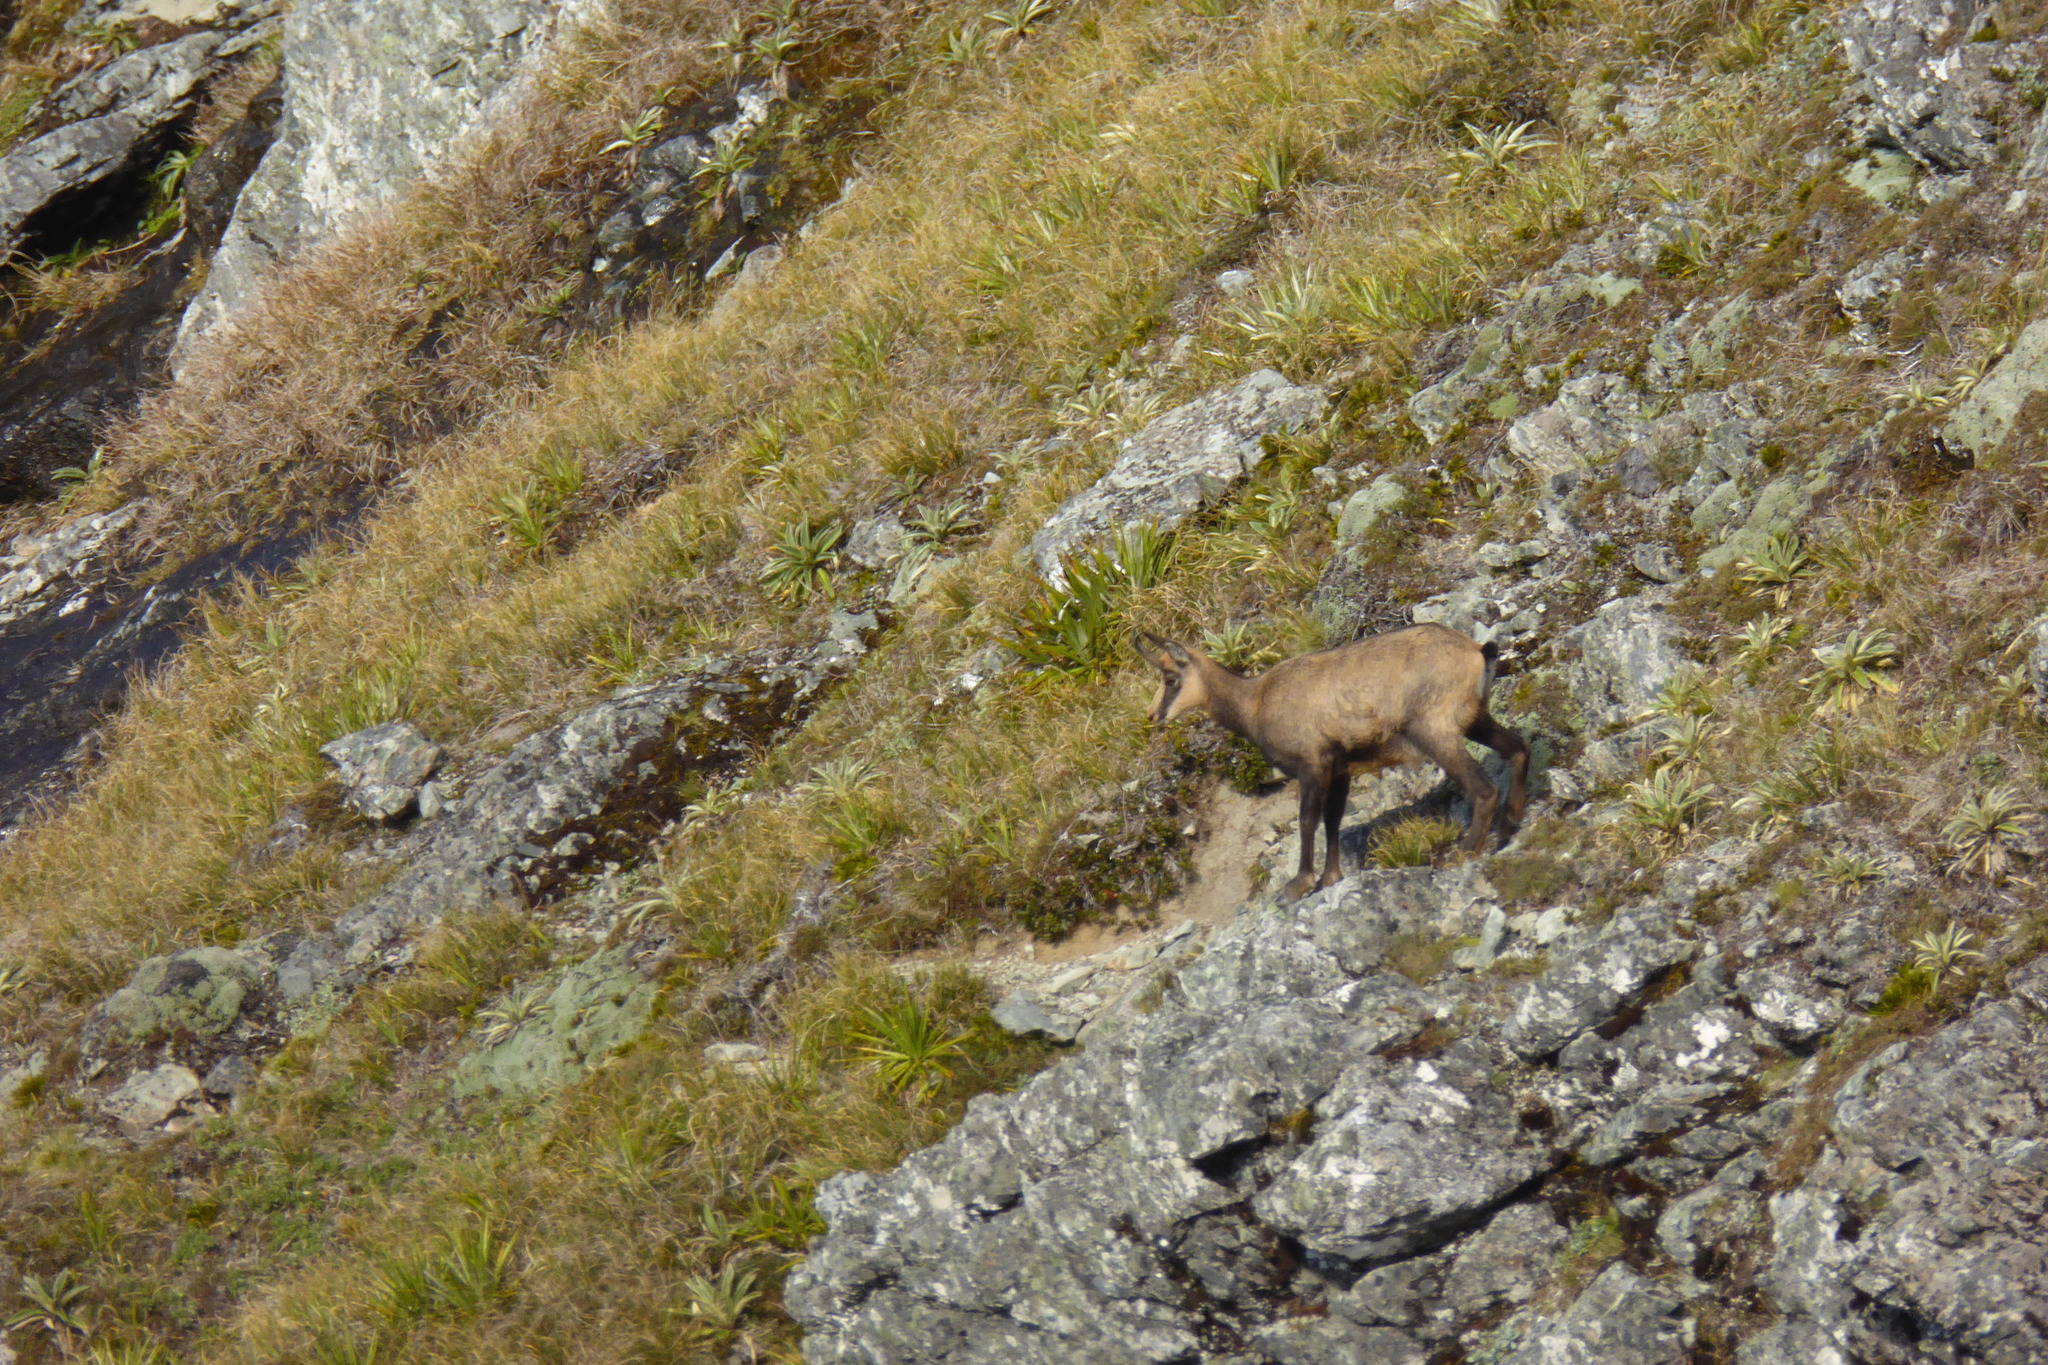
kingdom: Animalia
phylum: Chordata
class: Mammalia
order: Artiodactyla
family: Bovidae
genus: Rupicapra
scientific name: Rupicapra rupicapra
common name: Chamois
